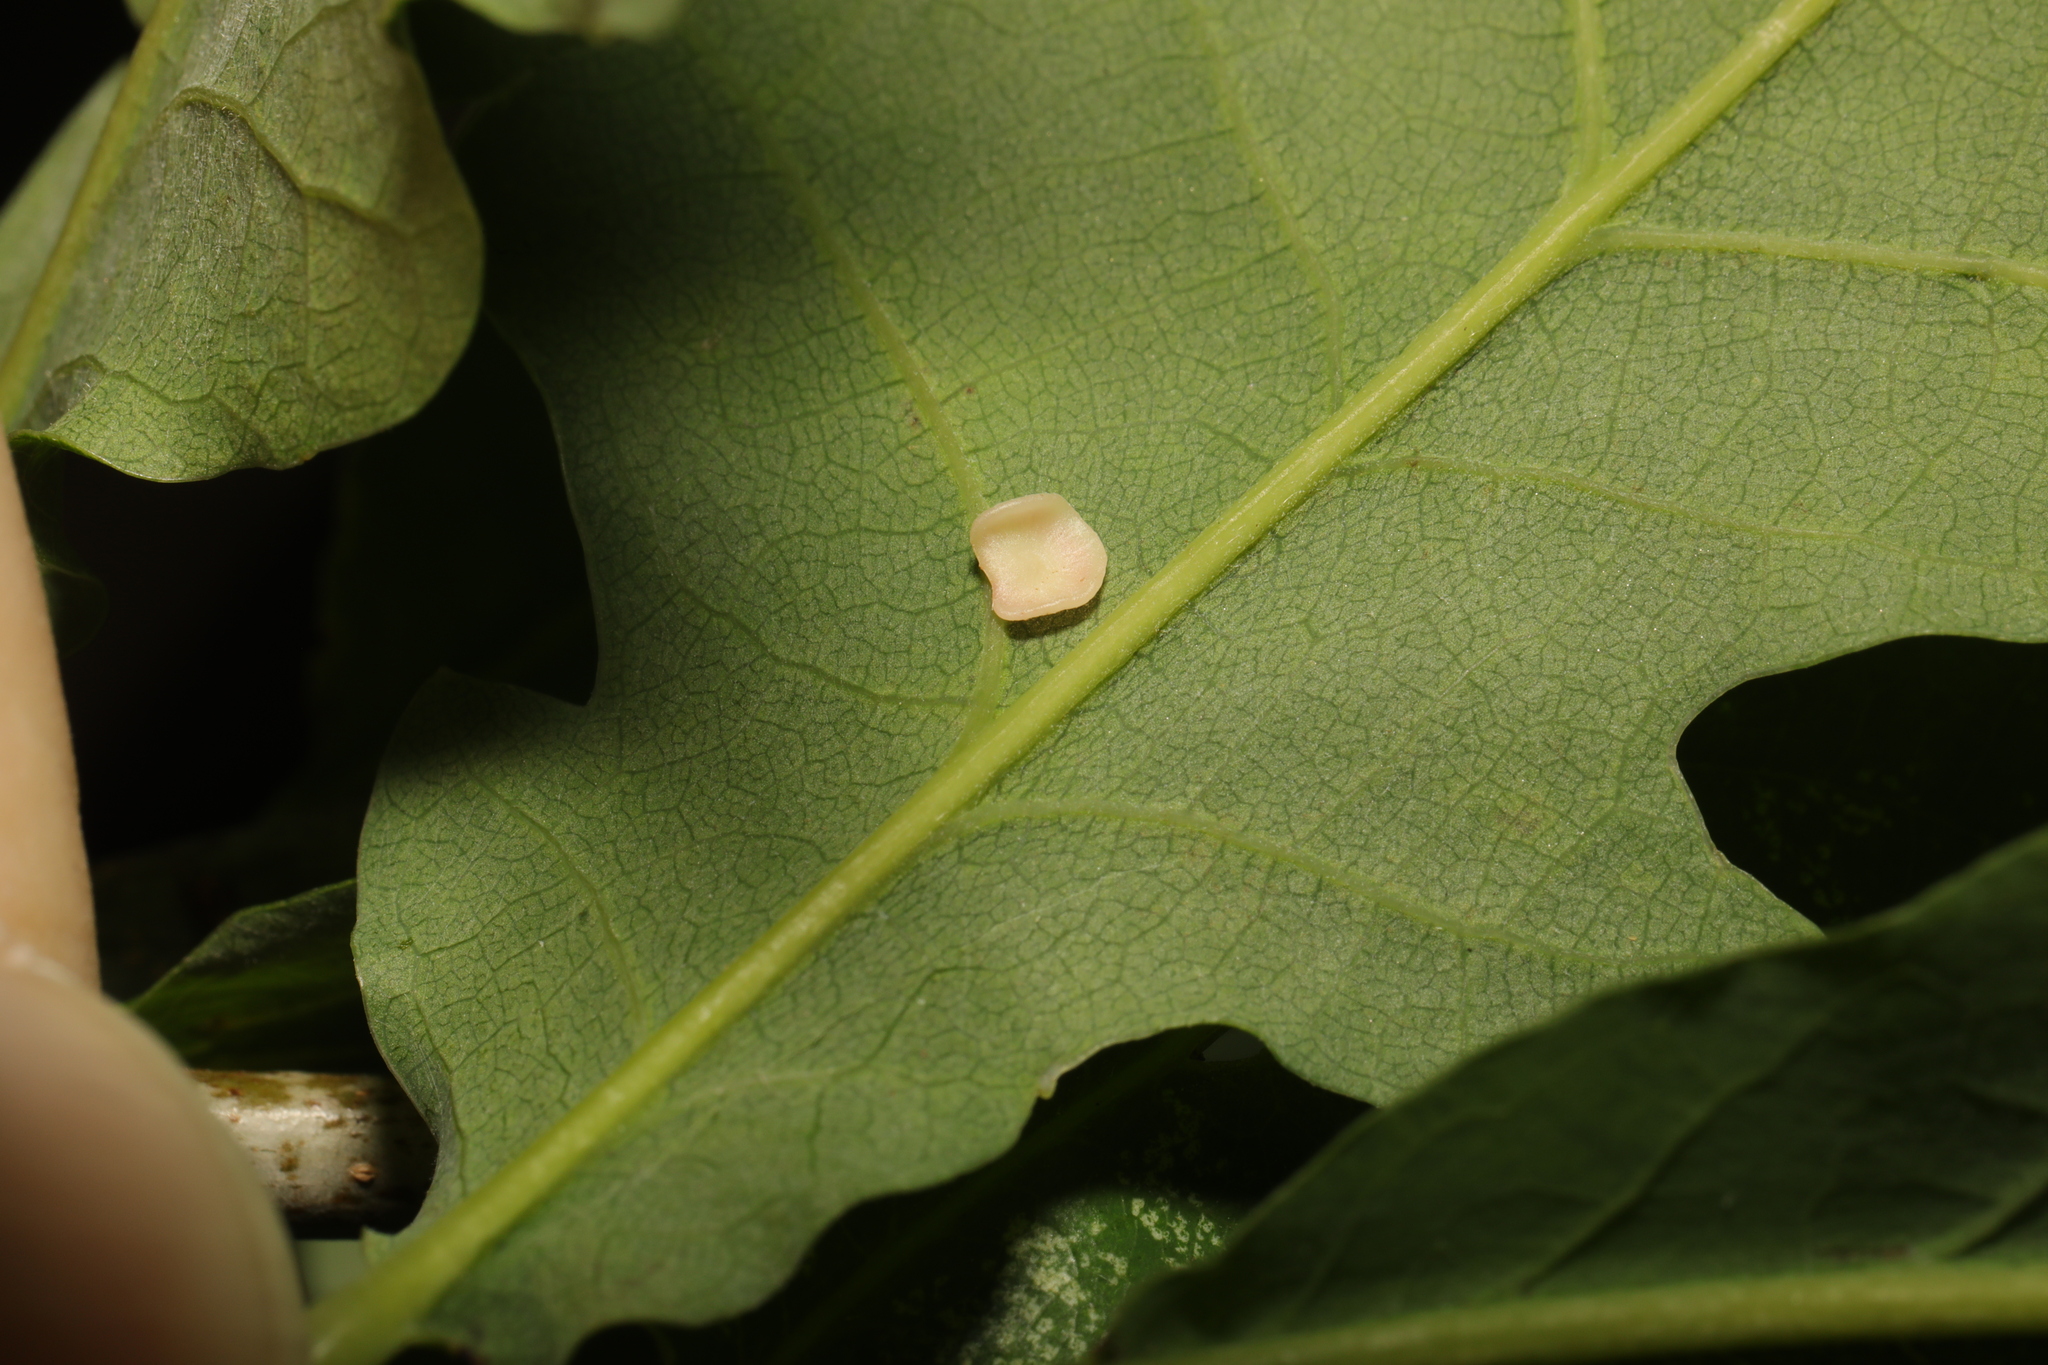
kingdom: Animalia
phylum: Arthropoda
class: Insecta
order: Hymenoptera
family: Cynipidae
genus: Neuroterus
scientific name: Neuroterus albipes
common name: Smooth spangle gall
